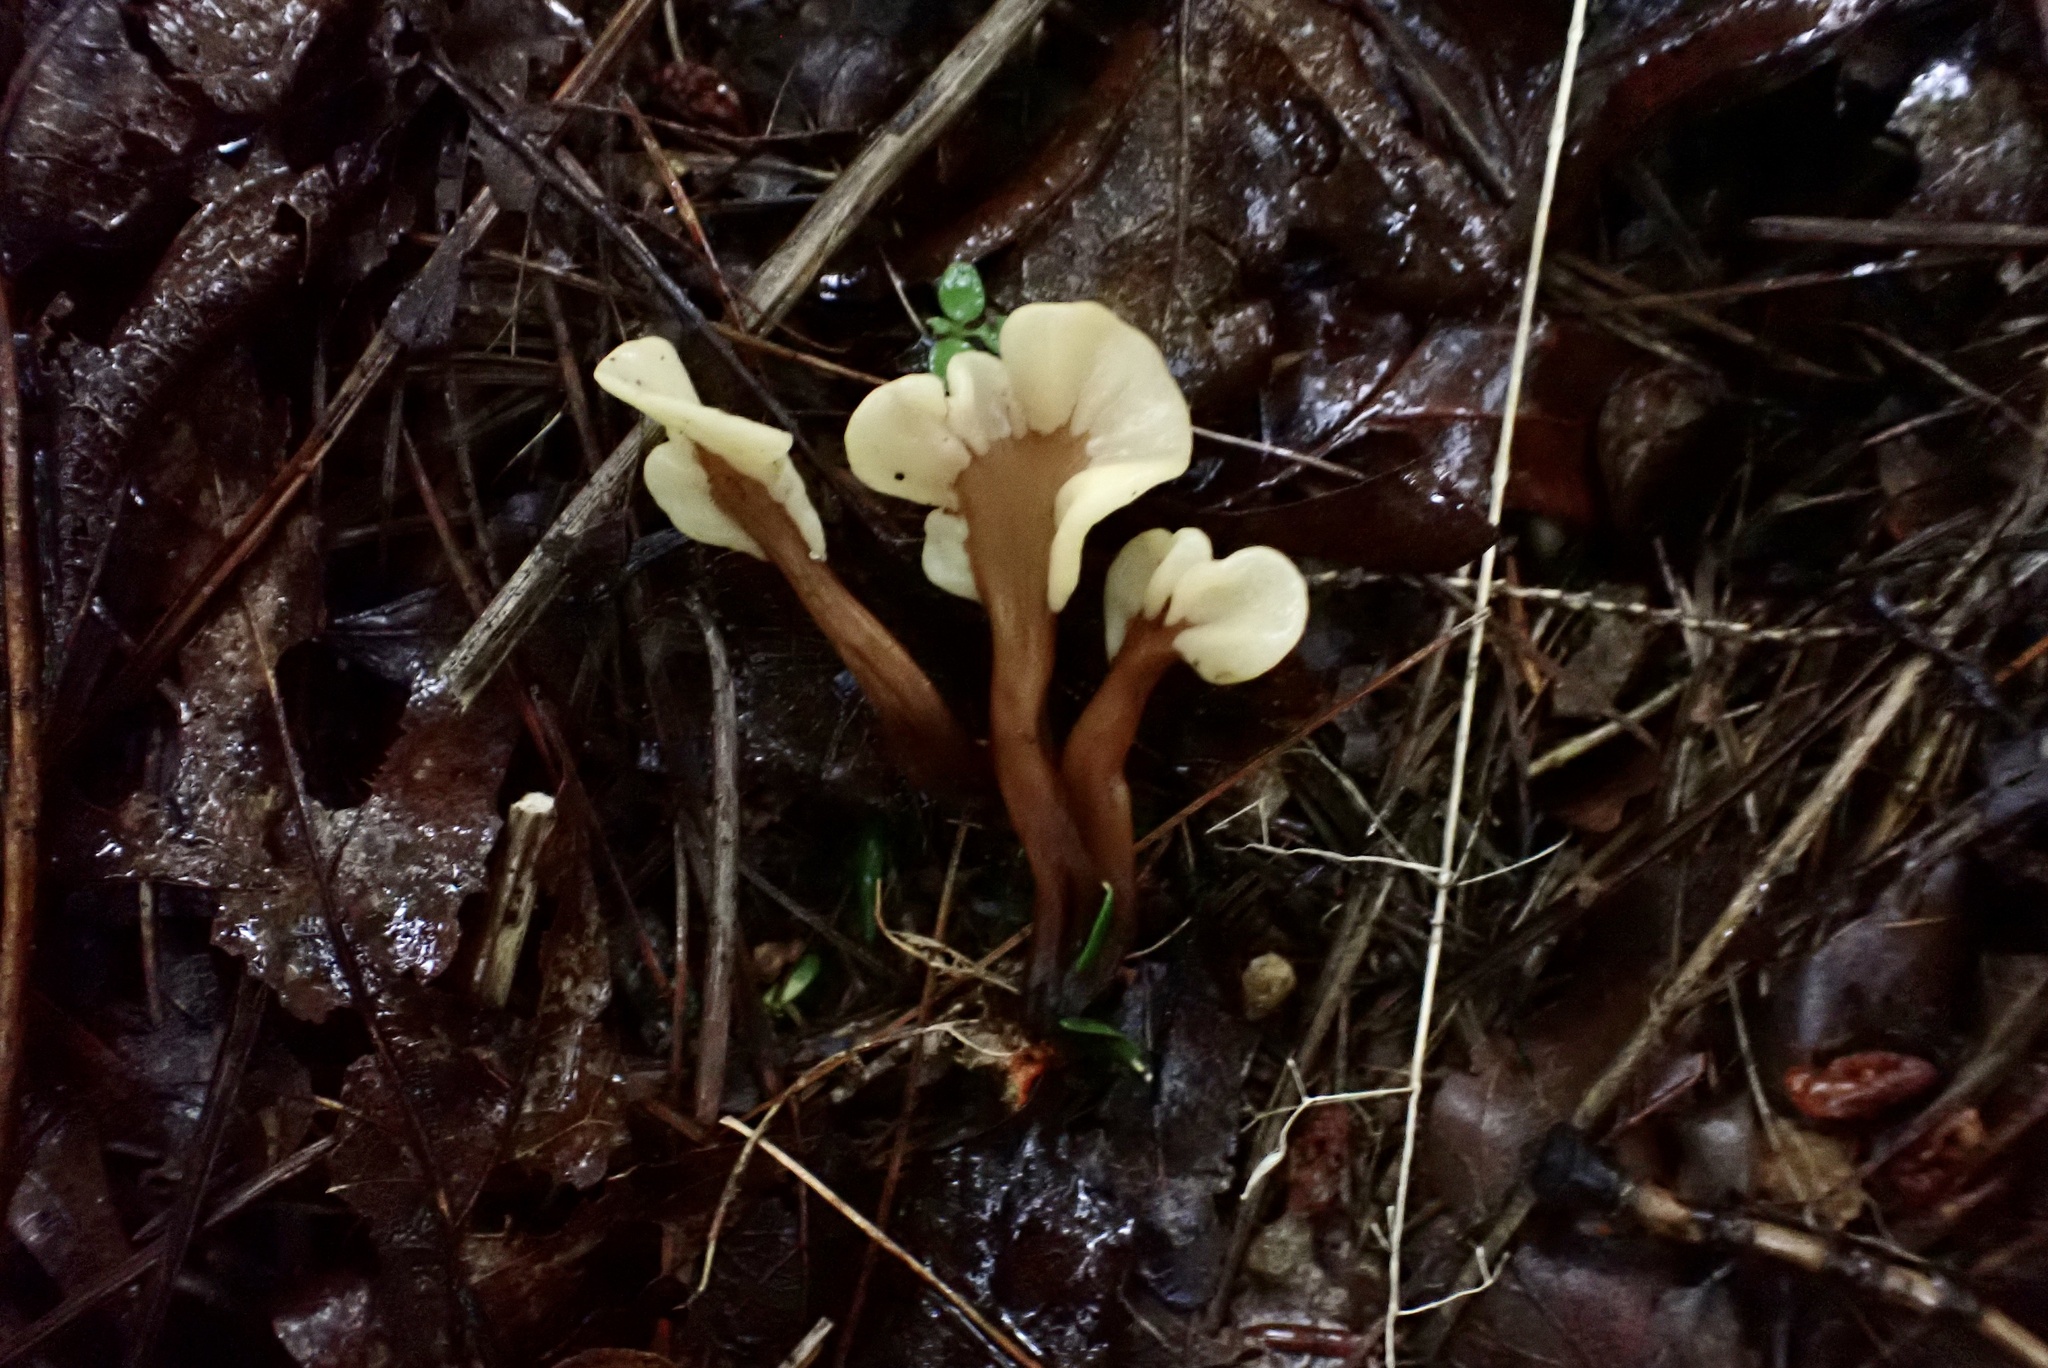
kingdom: Fungi
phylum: Ascomycota
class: Leotiomycetes
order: Rhytismatales
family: Cudoniaceae
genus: Spathulariopsis
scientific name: Spathulariopsis velutipes
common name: Velvet-foot fairy fan
